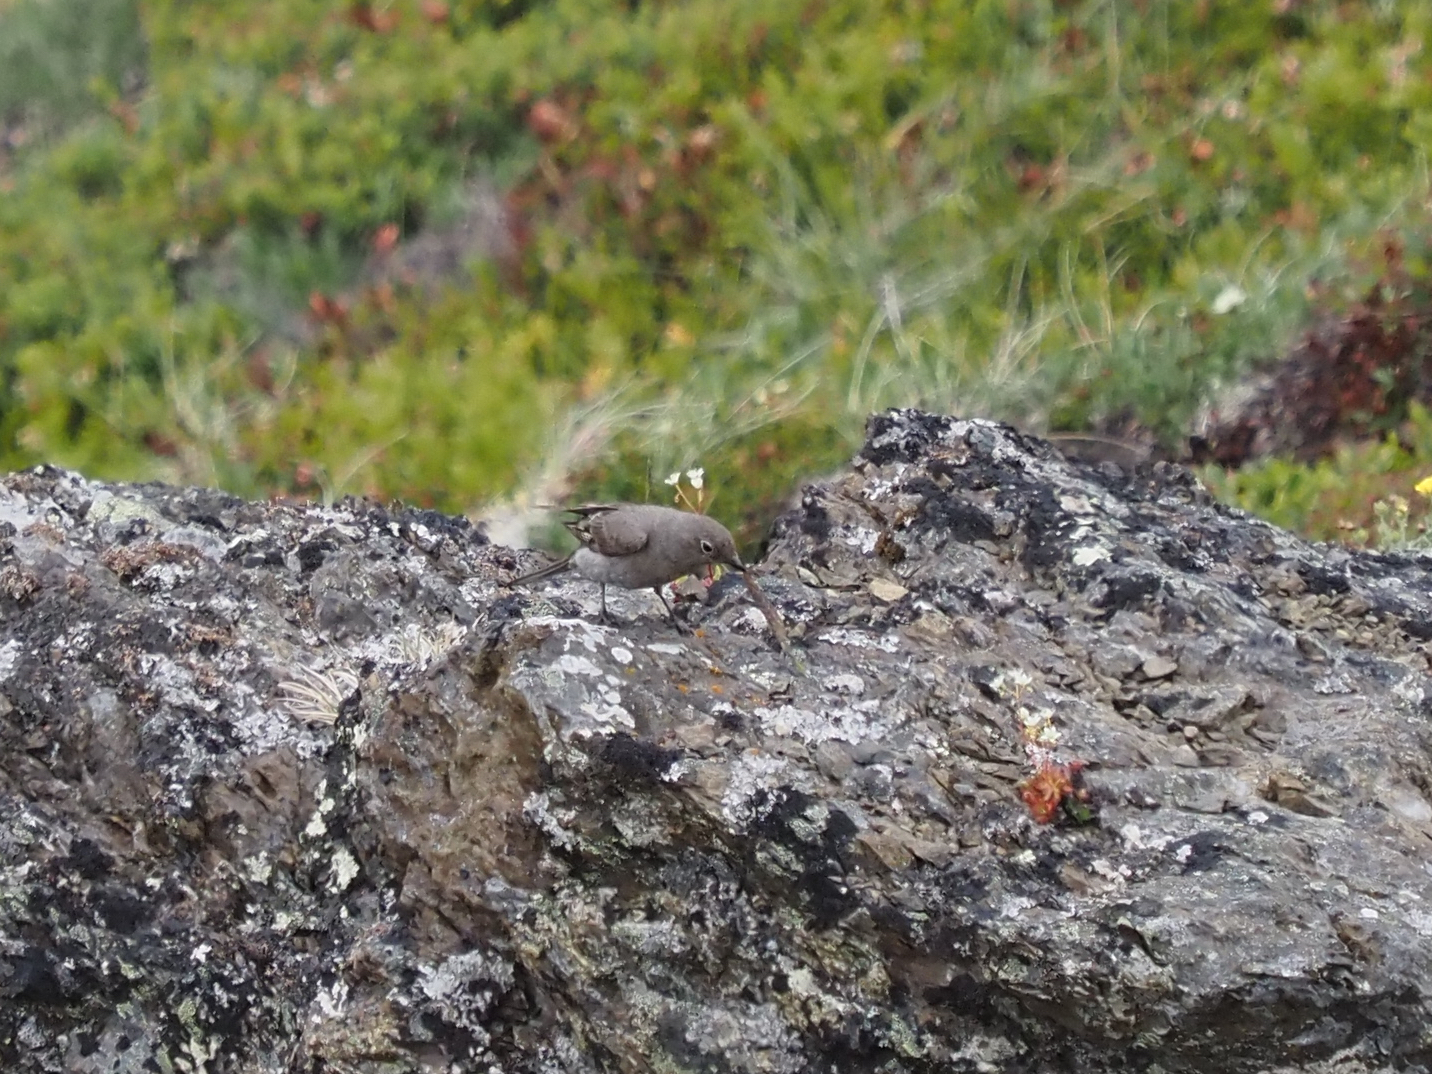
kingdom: Animalia
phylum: Chordata
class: Aves
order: Passeriformes
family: Turdidae
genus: Myadestes
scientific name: Myadestes townsendi
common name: Townsend's solitaire
